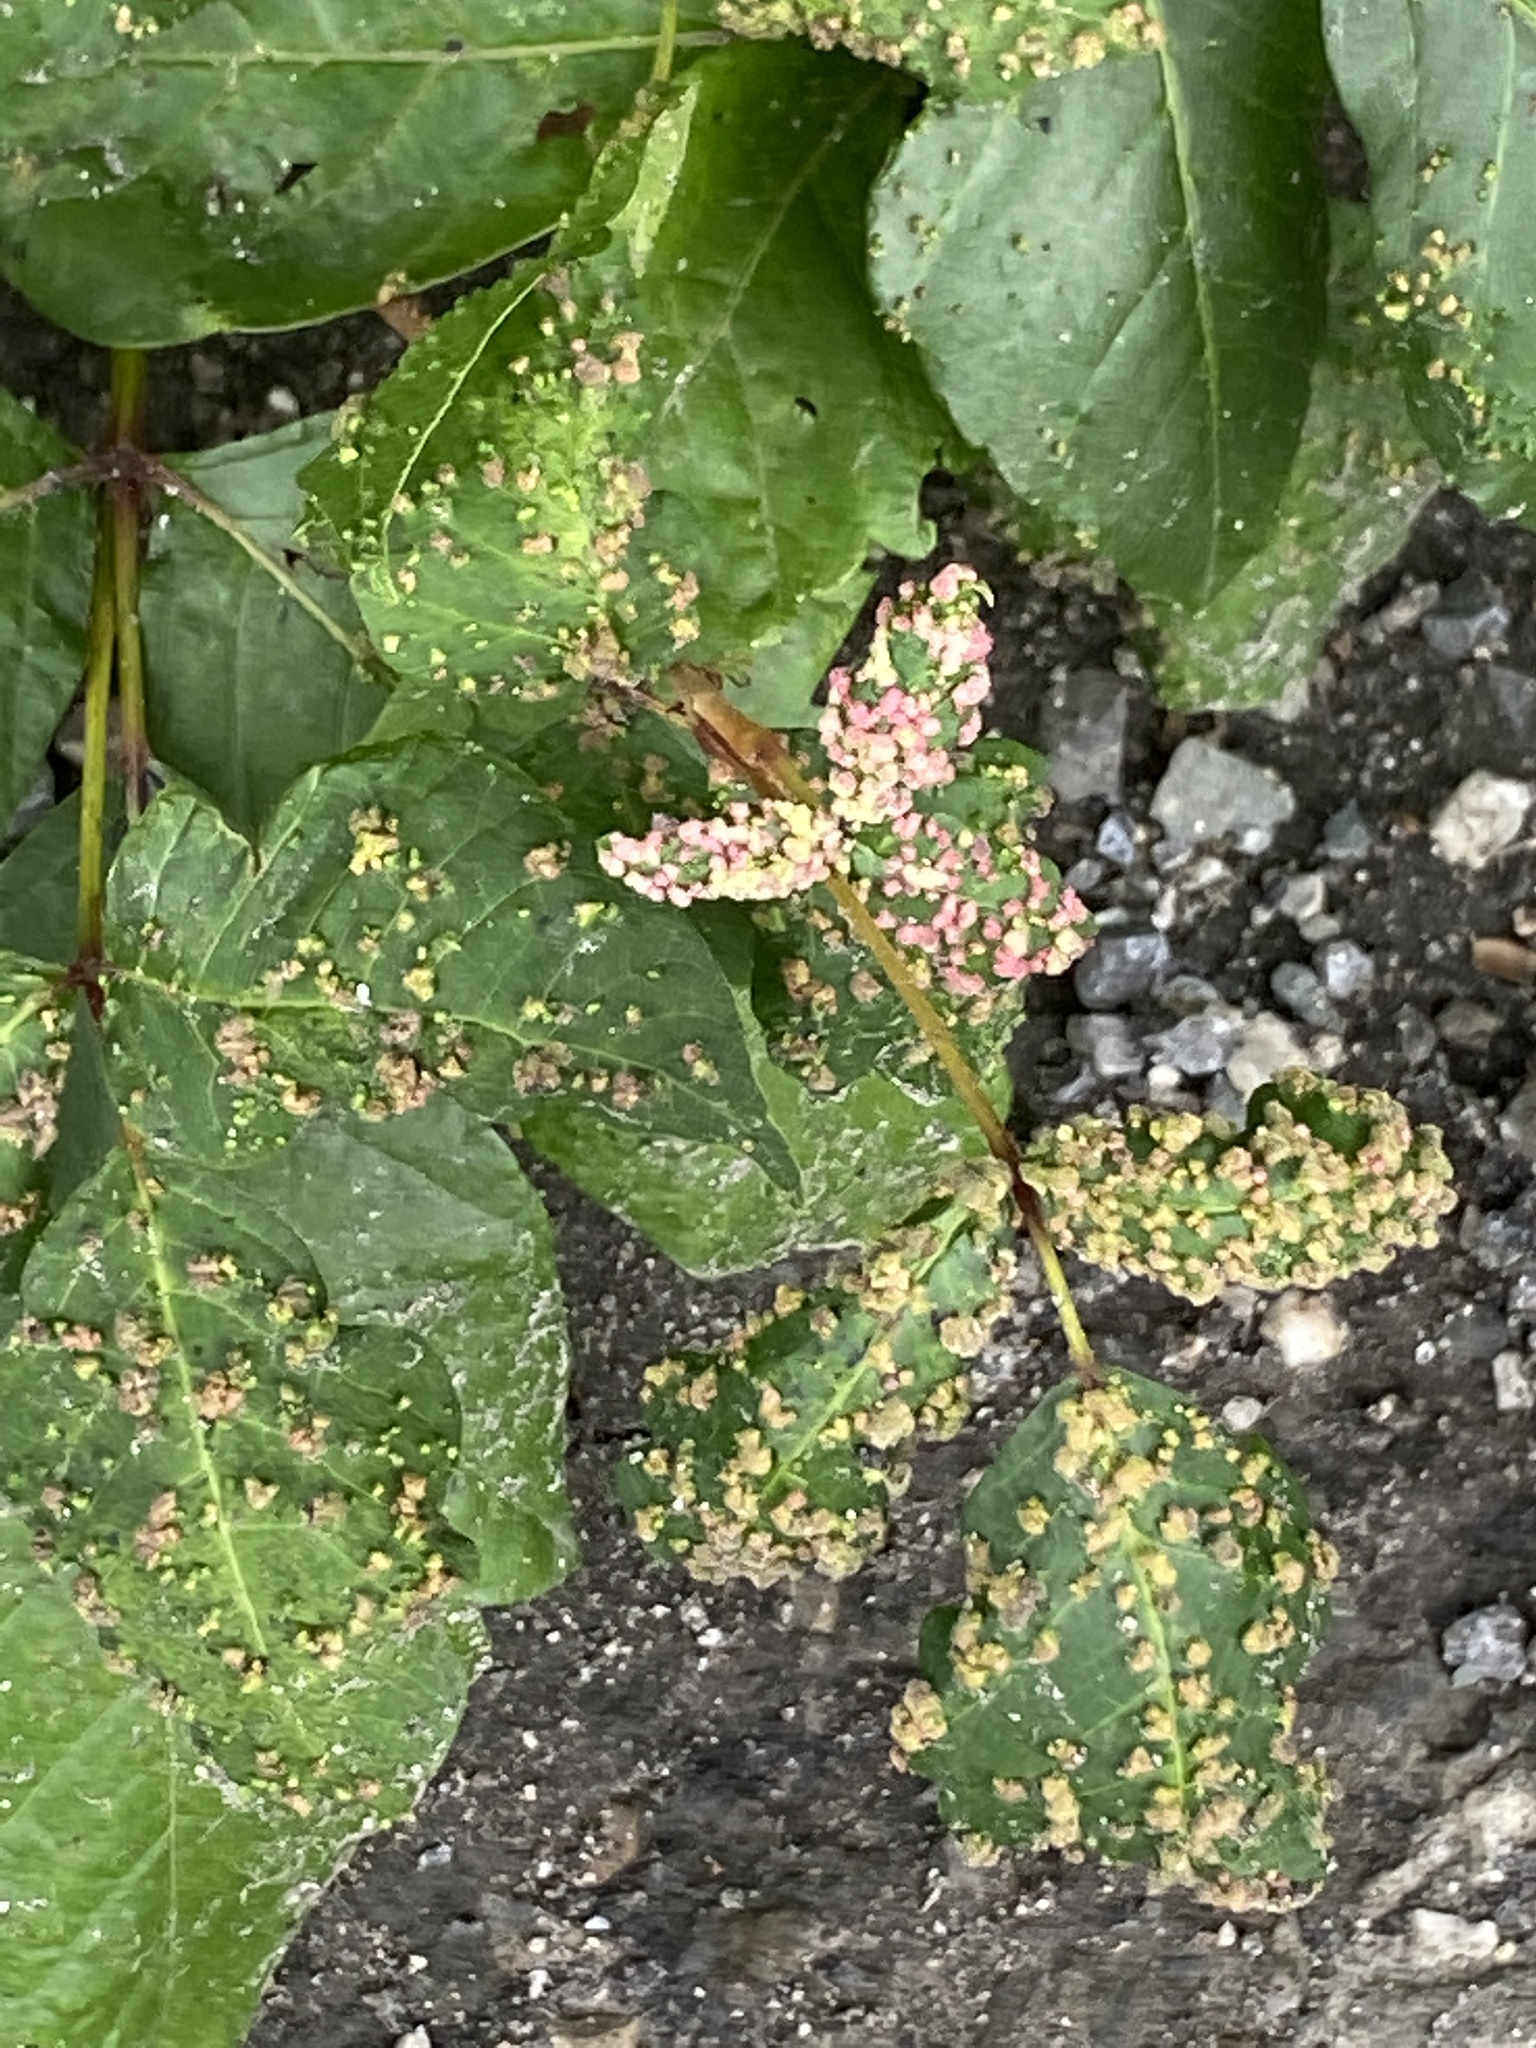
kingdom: Animalia
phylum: Arthropoda
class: Arachnida
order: Trombidiformes
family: Eriophyidae
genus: Aculops
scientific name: Aculops
